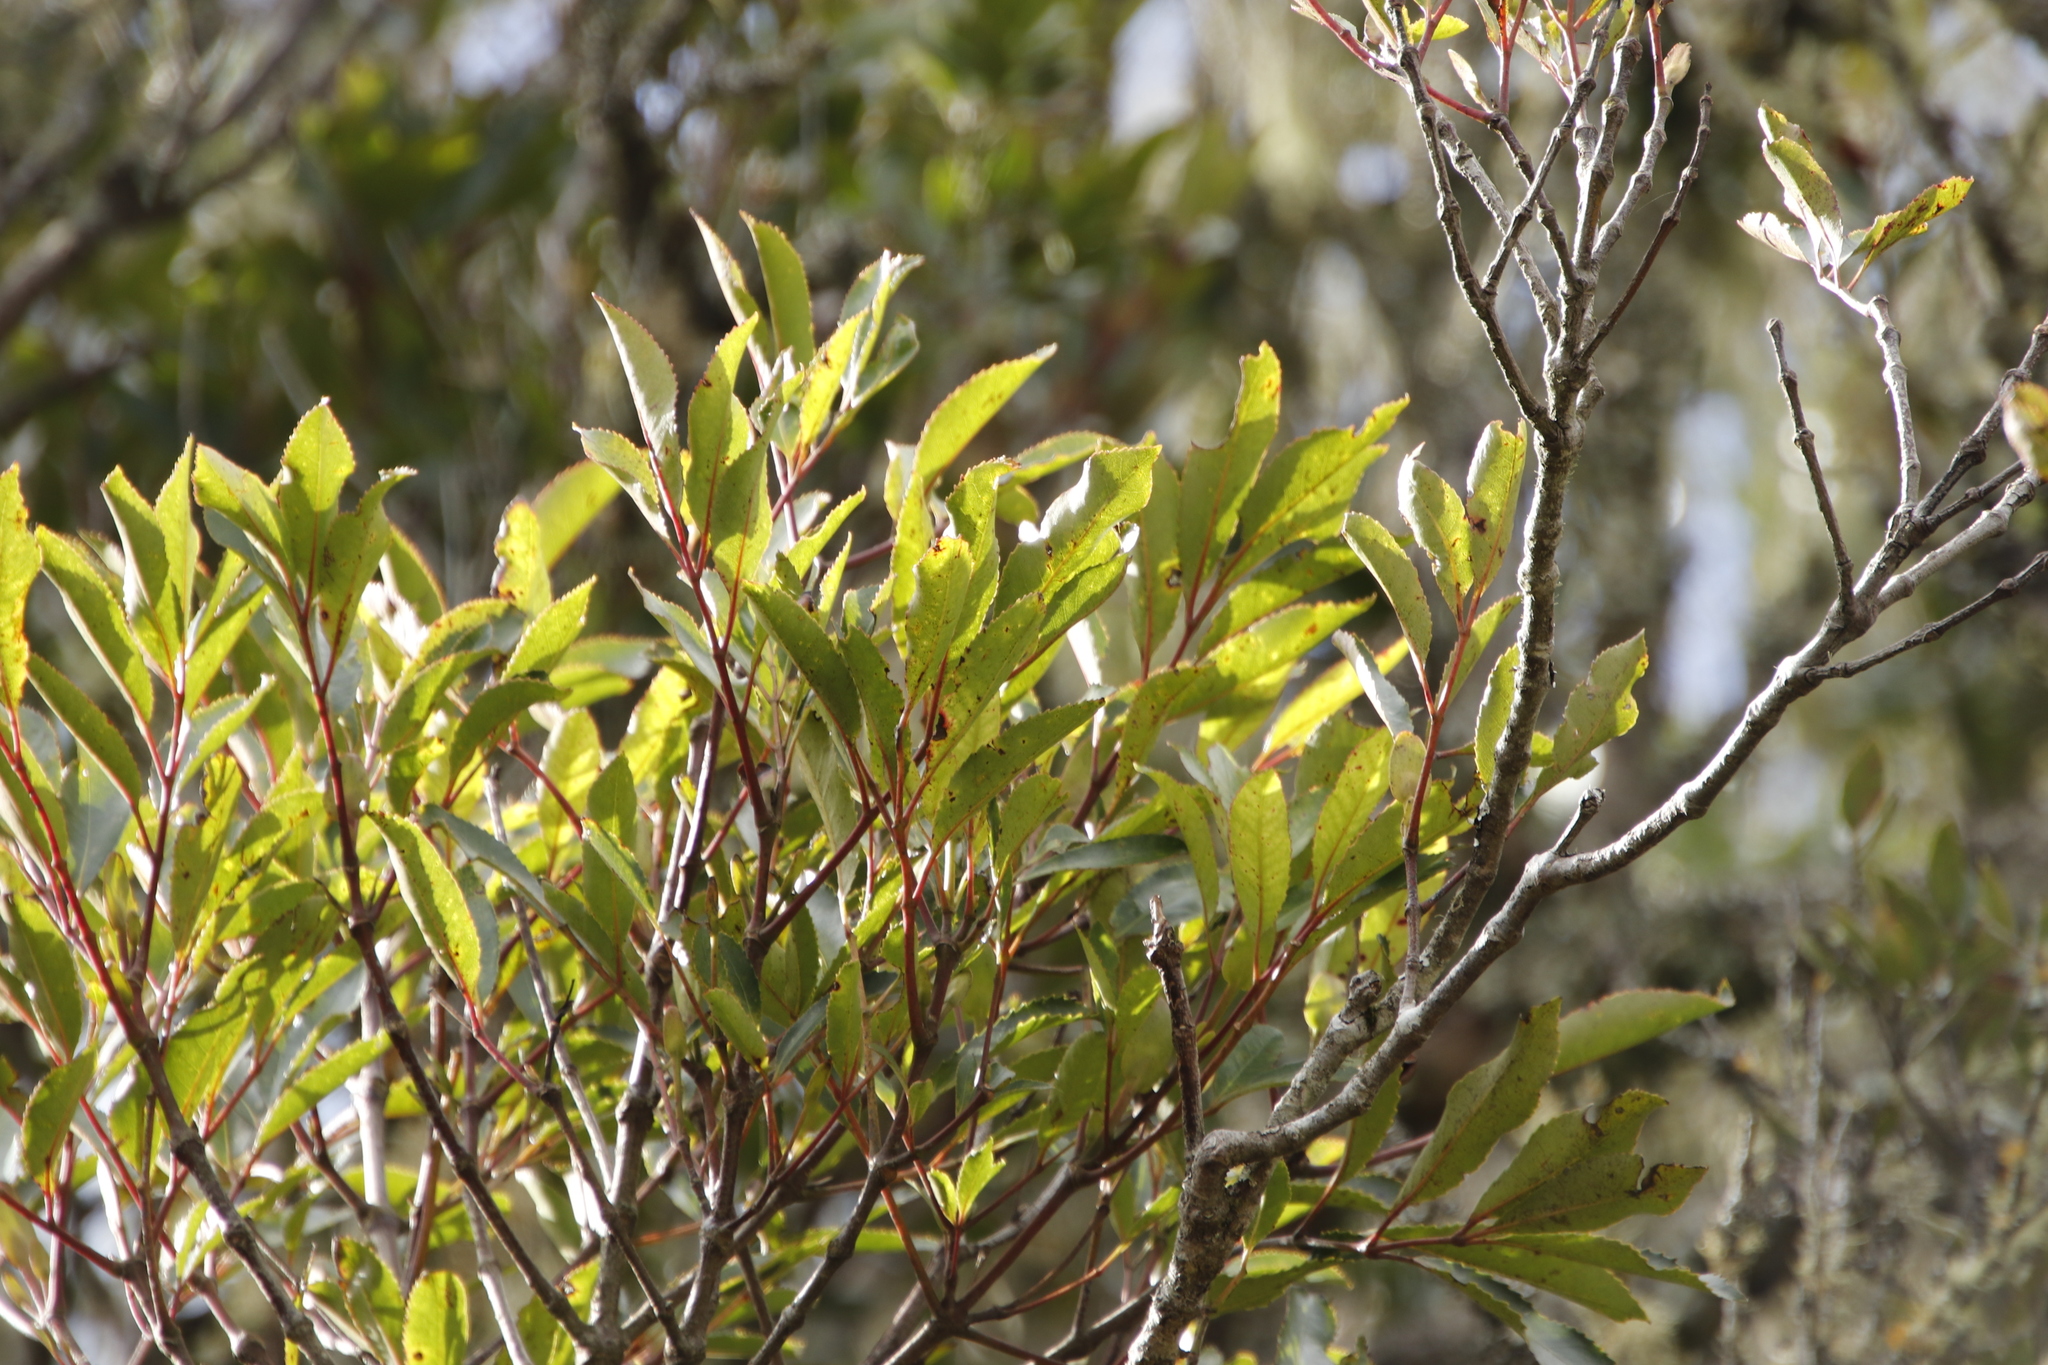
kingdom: Plantae
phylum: Tracheophyta
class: Magnoliopsida
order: Oxalidales
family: Cunoniaceae
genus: Cunonia
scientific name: Cunonia capensis
